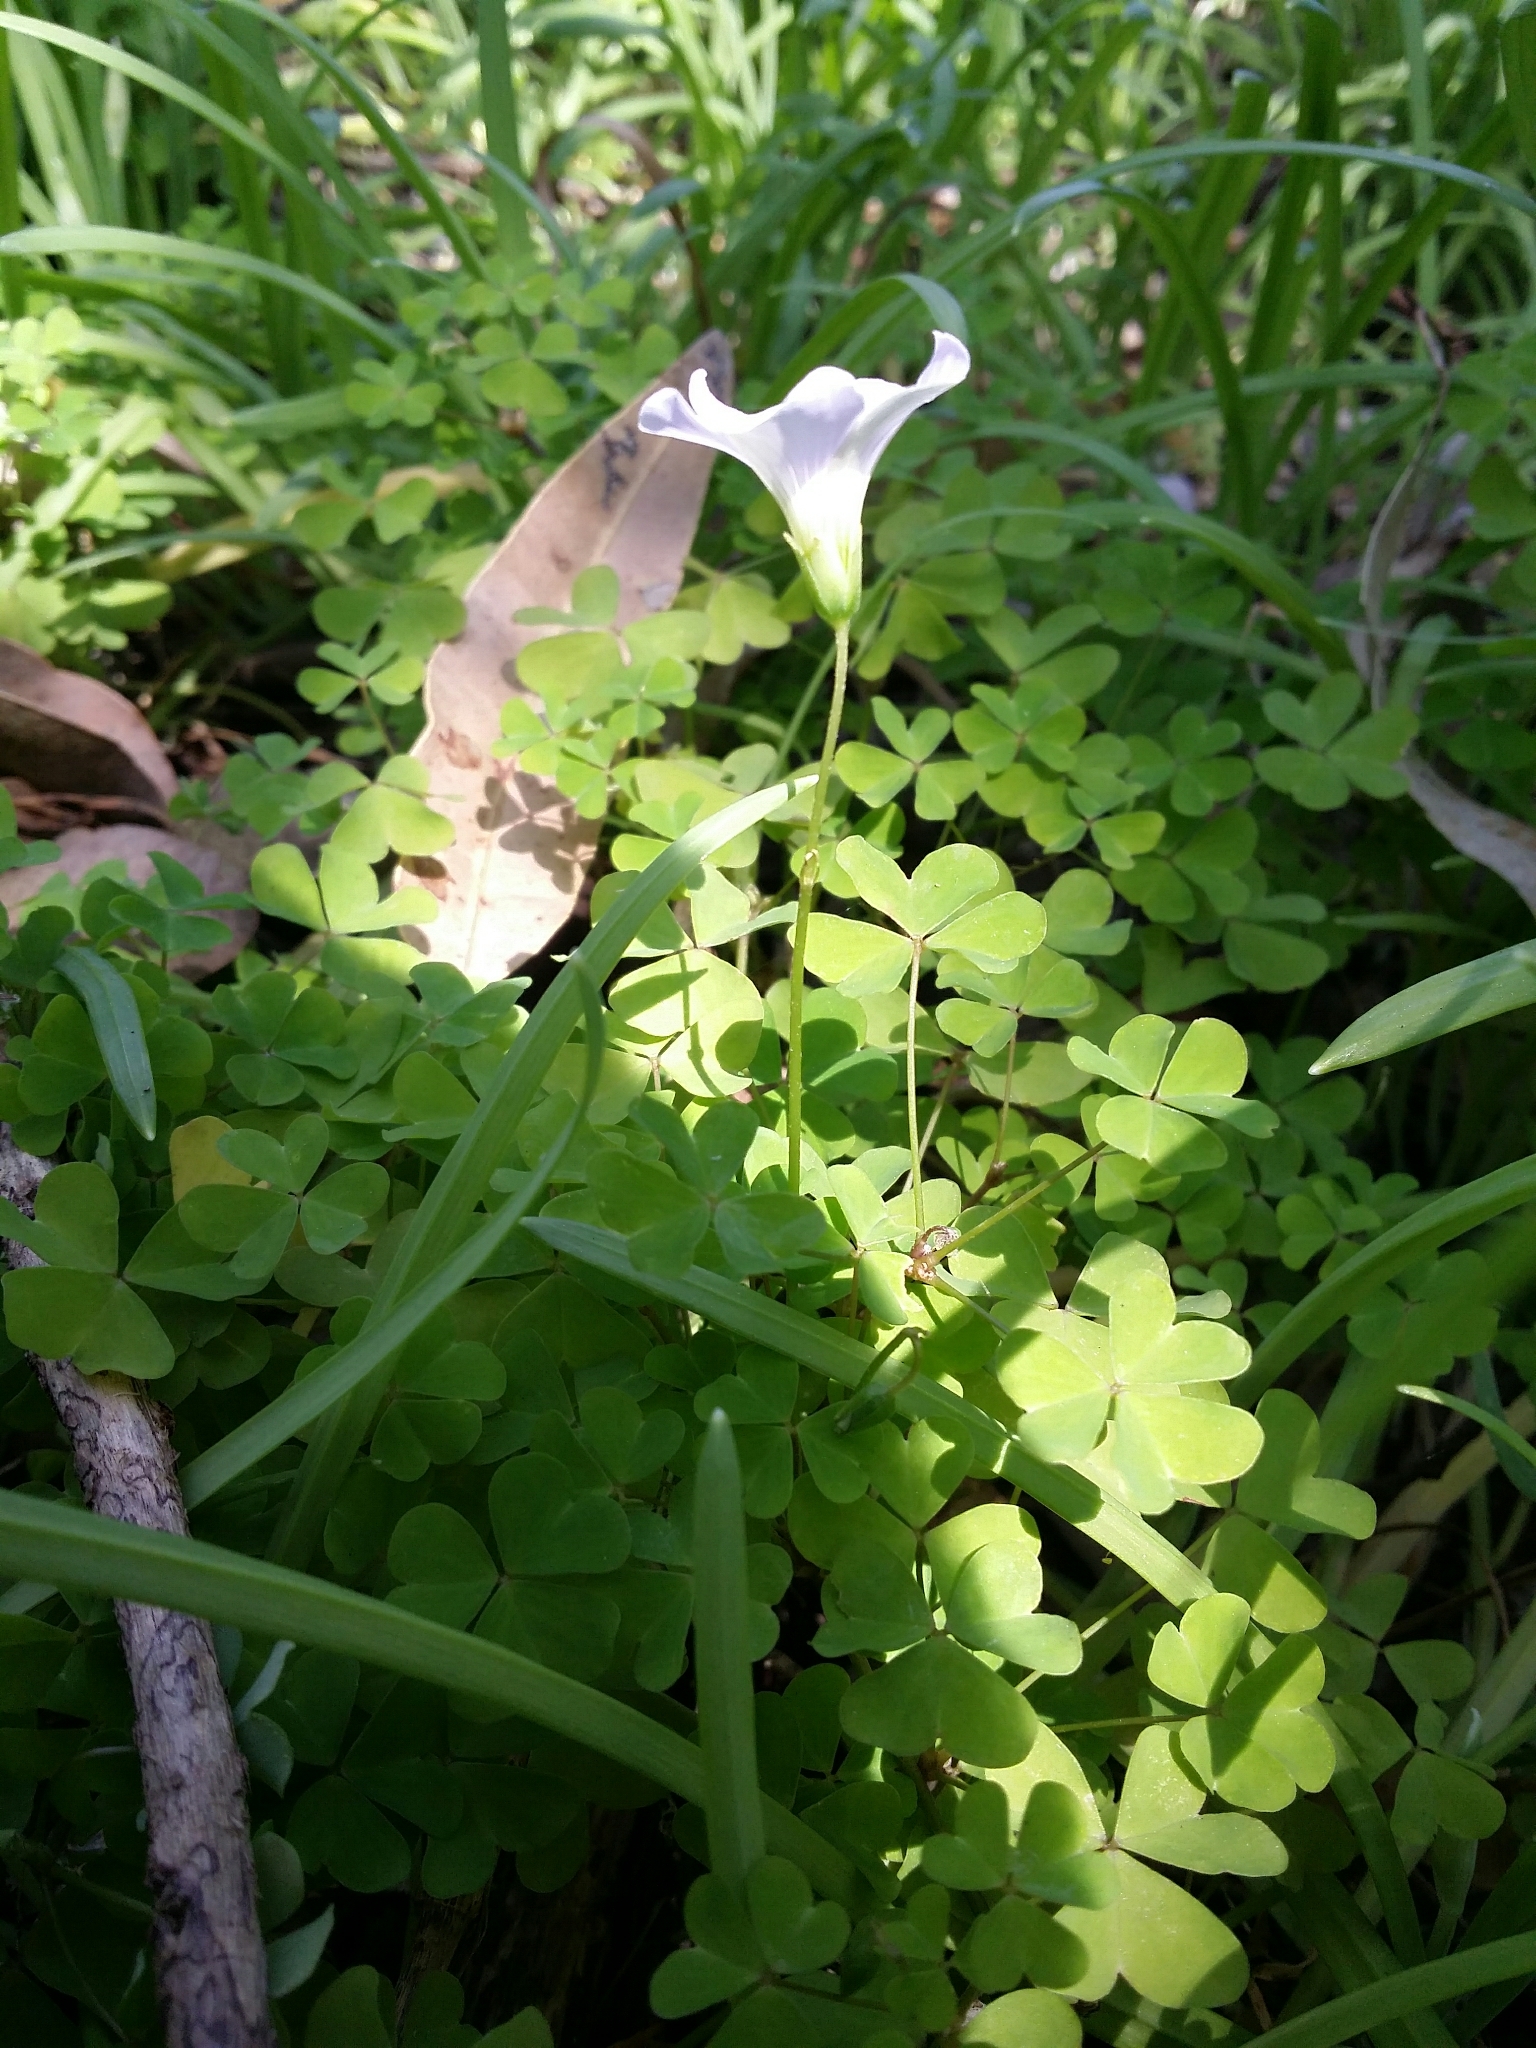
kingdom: Plantae
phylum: Tracheophyta
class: Magnoliopsida
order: Oxalidales
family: Oxalidaceae
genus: Oxalis
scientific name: Oxalis incarnata
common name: Pale pink-sorrel
